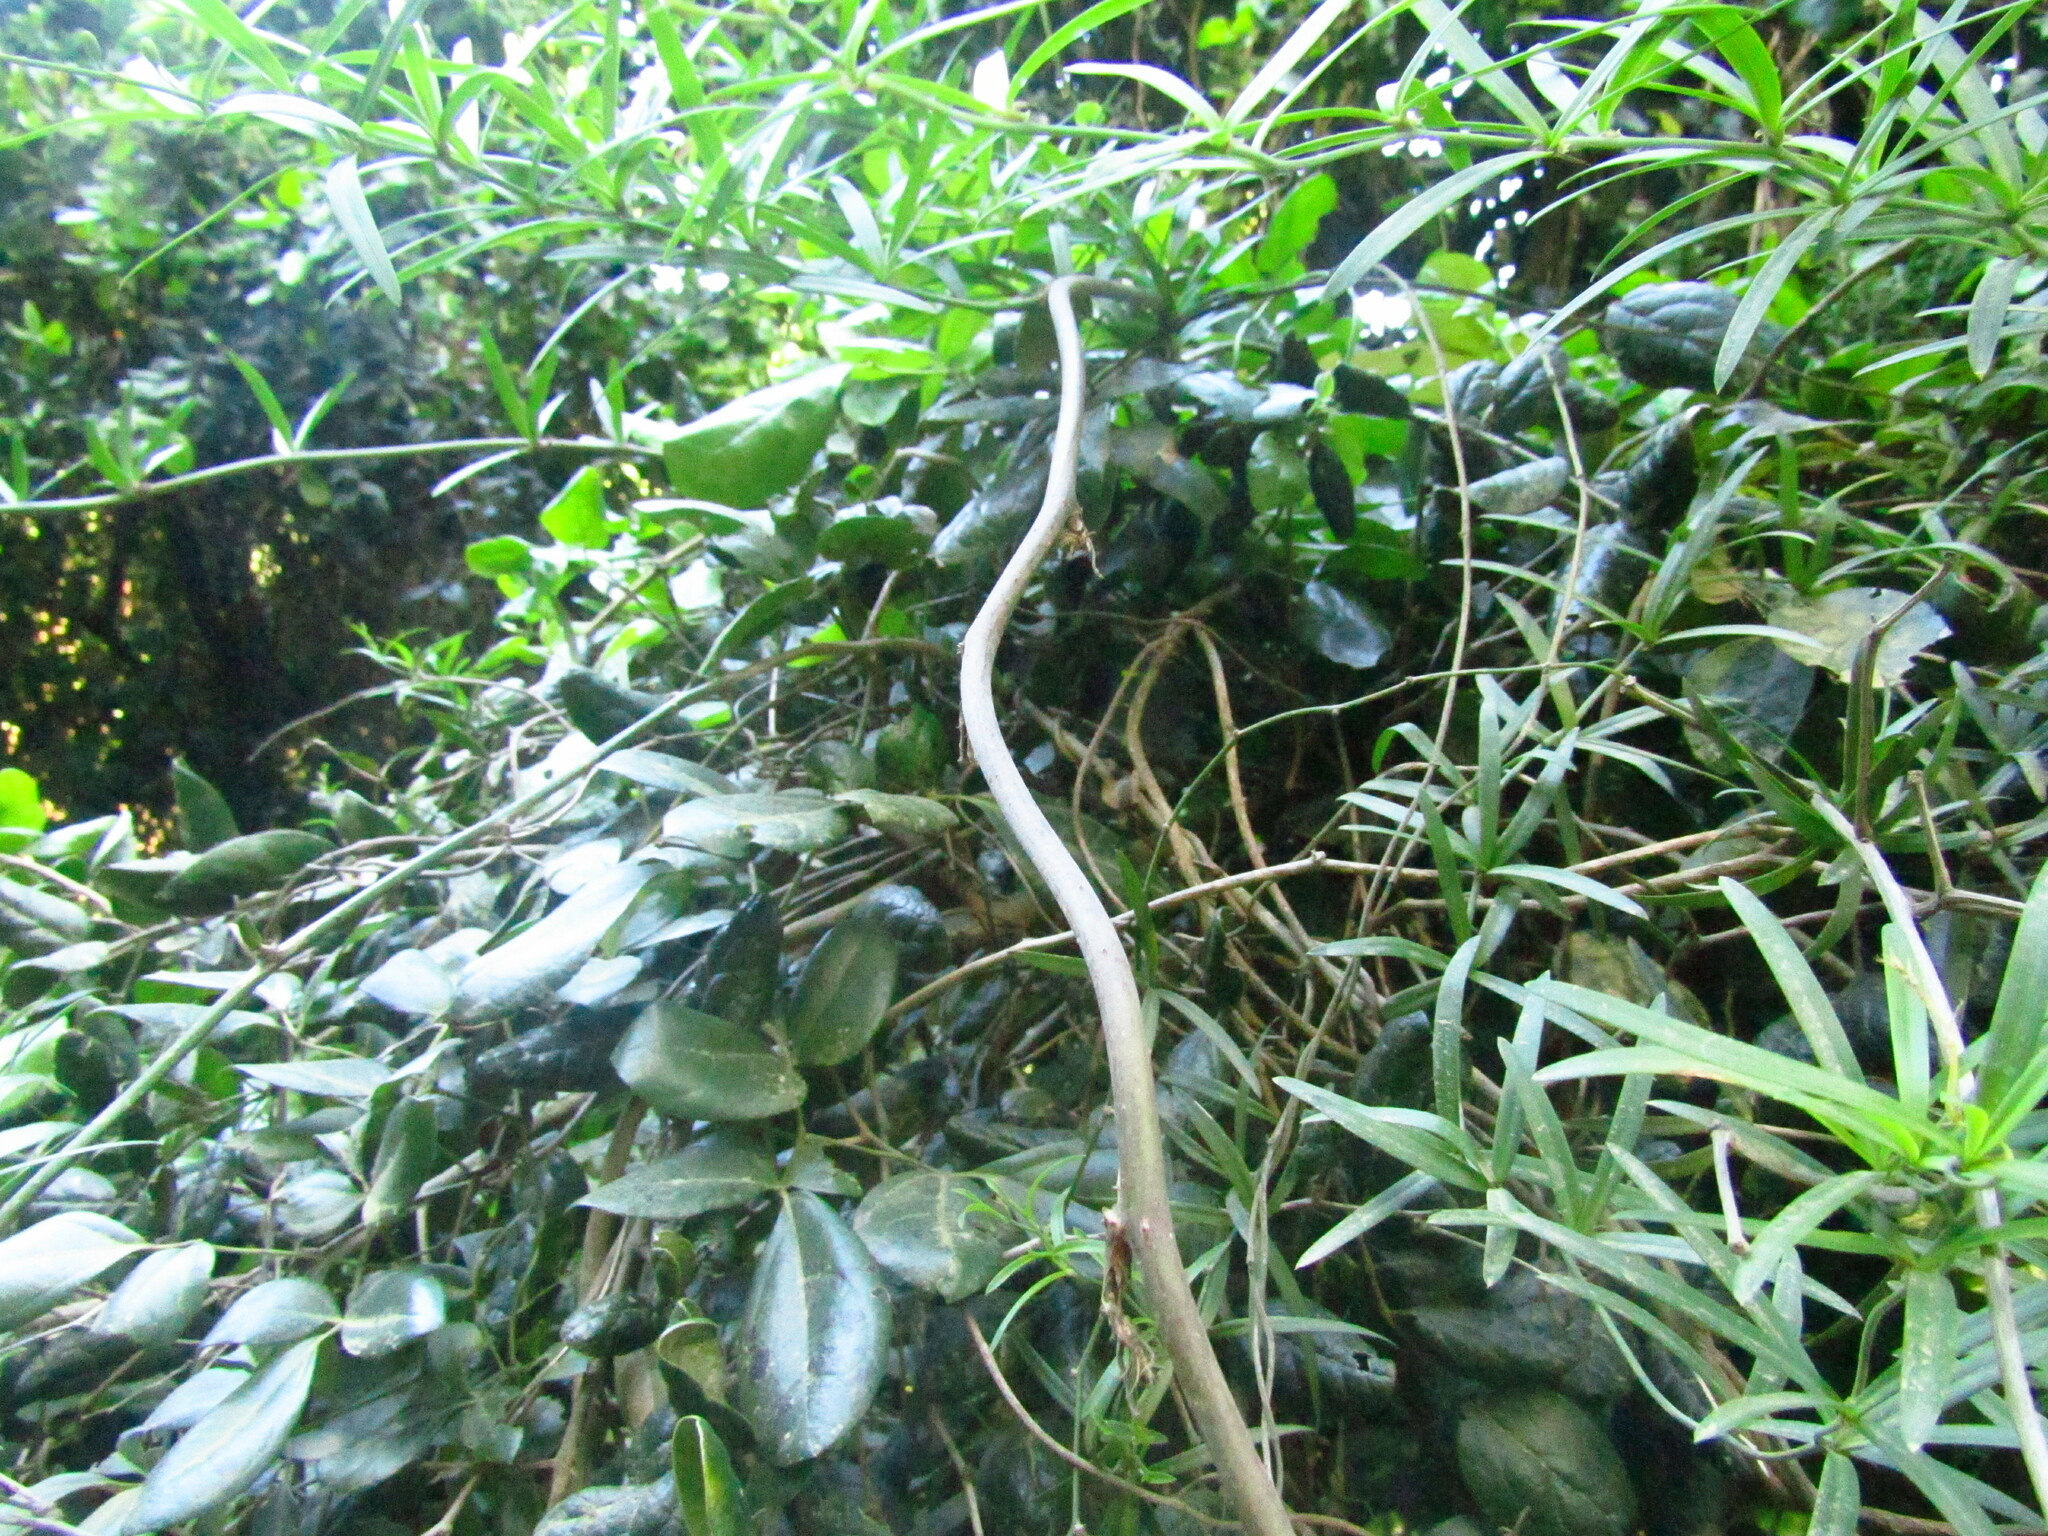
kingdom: Plantae
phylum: Tracheophyta
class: Liliopsida
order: Asparagales
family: Asparagaceae
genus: Herreria
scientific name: Herreria stellata
